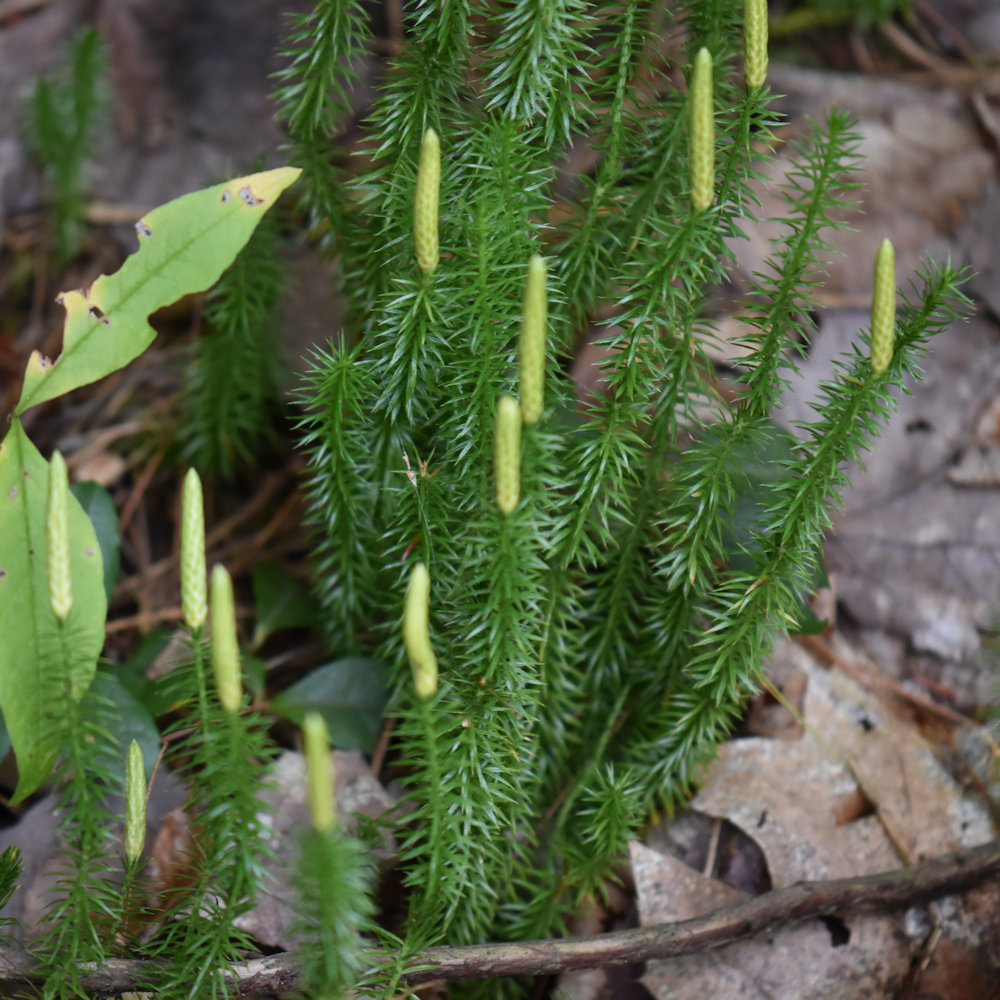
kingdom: Plantae
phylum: Tracheophyta
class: Lycopodiopsida
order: Lycopodiales
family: Lycopodiaceae
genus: Spinulum
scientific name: Spinulum annotinum
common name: Interrupted club-moss
